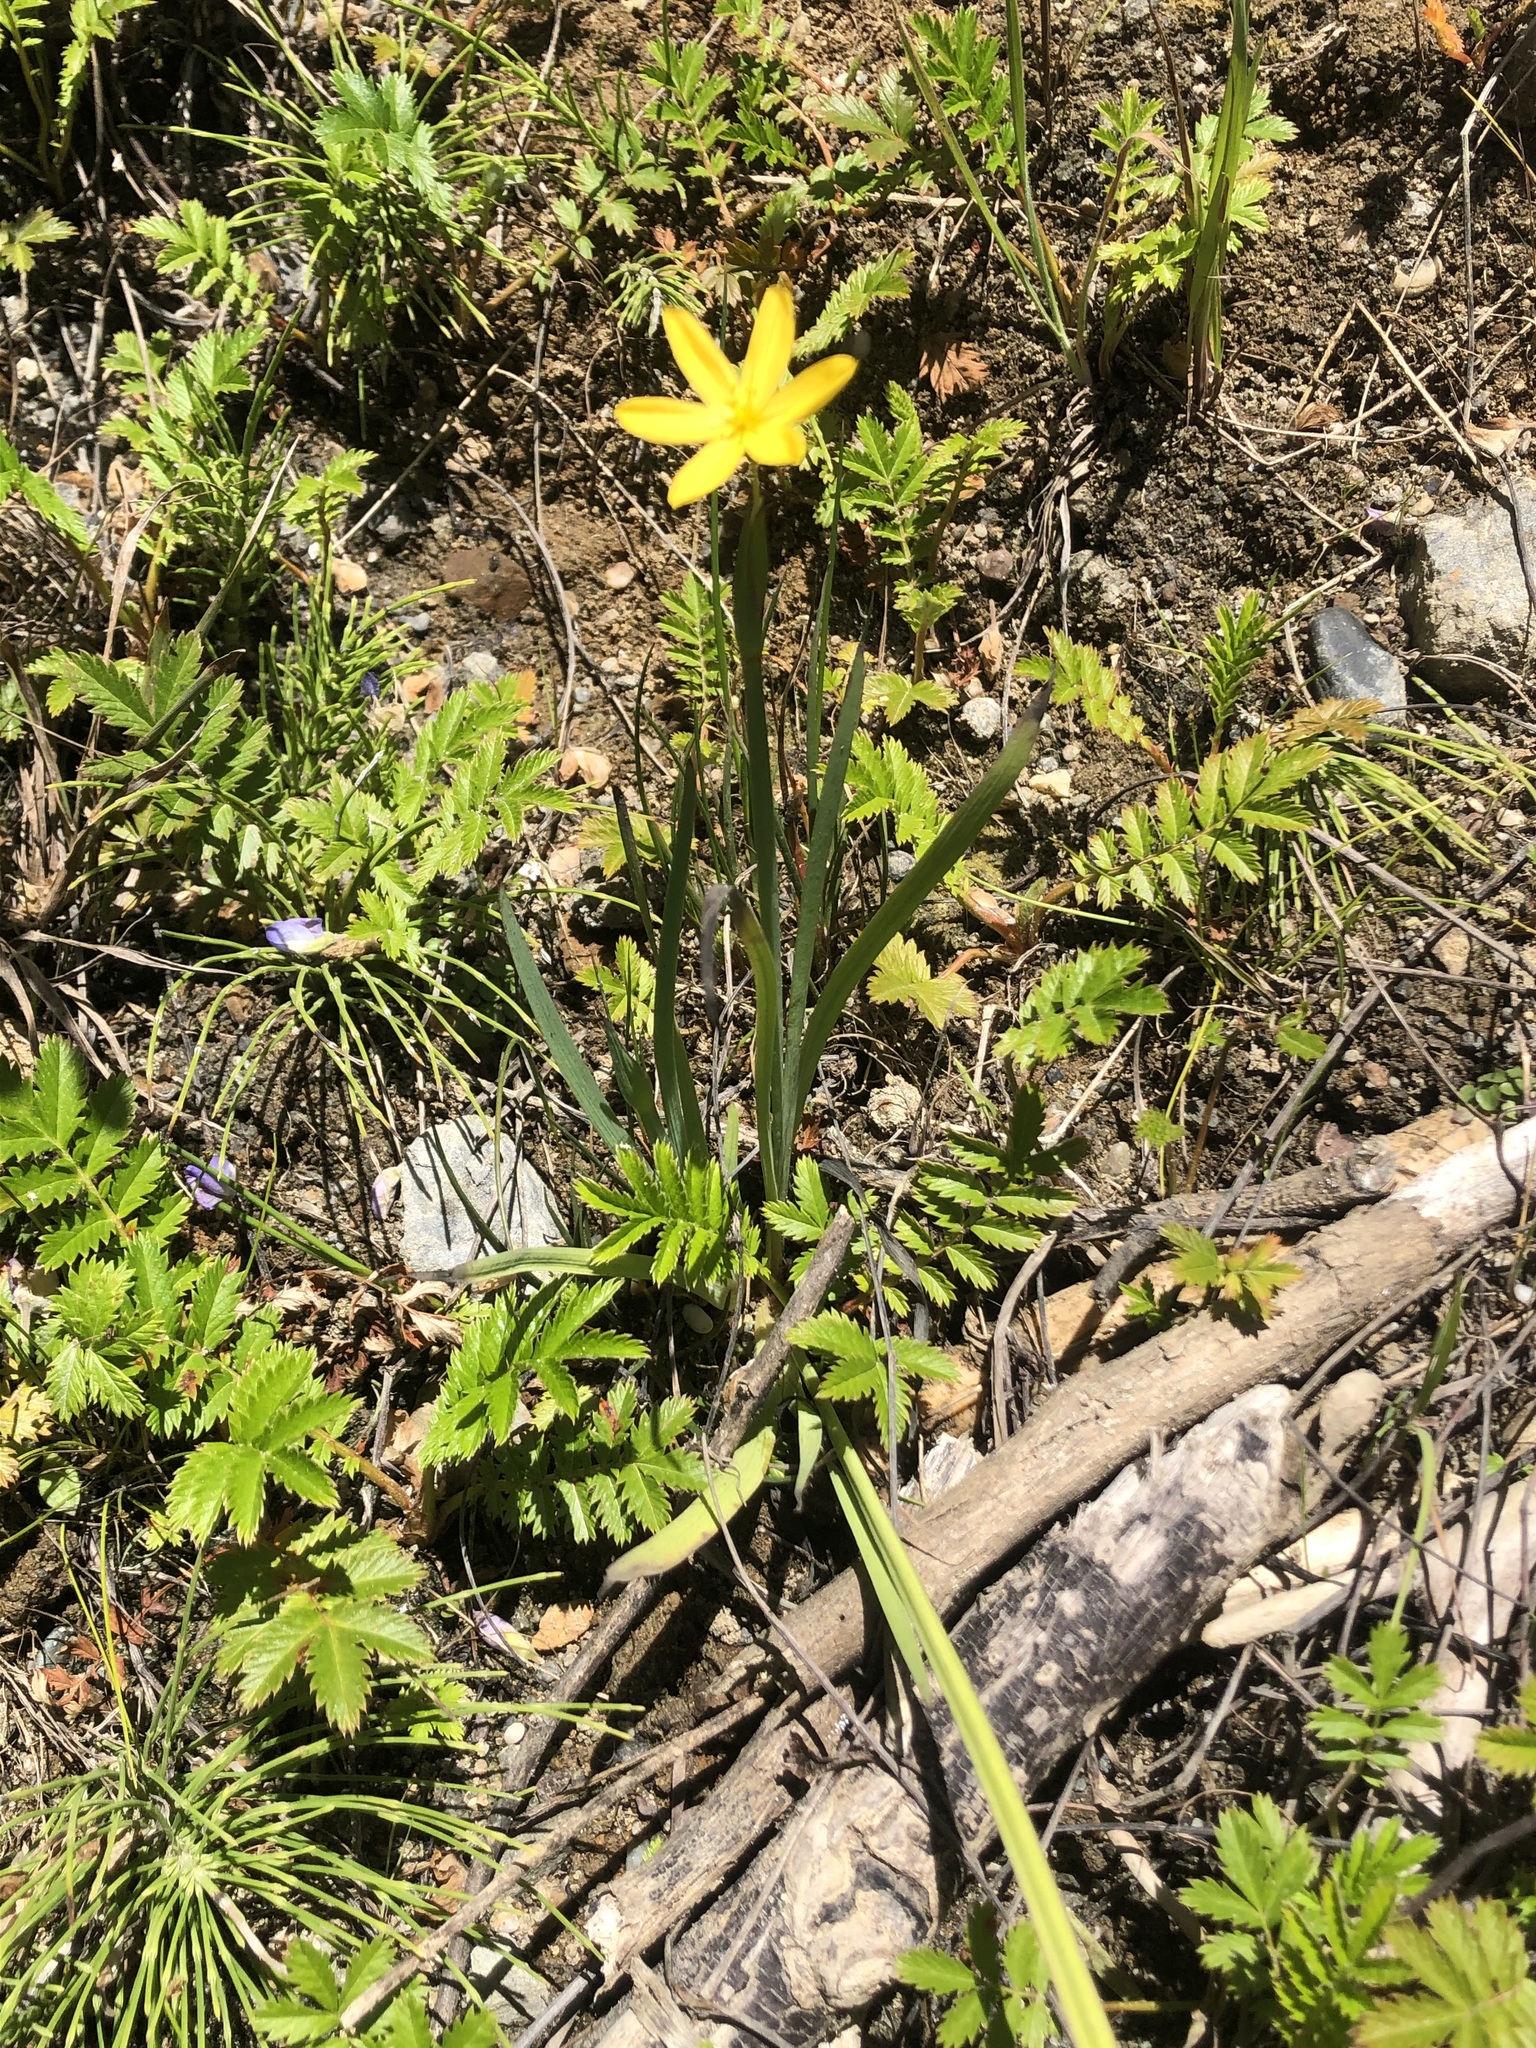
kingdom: Plantae
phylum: Tracheophyta
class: Liliopsida
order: Asparagales
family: Iridaceae
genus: Sisyrinchium
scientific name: Sisyrinchium californicum
